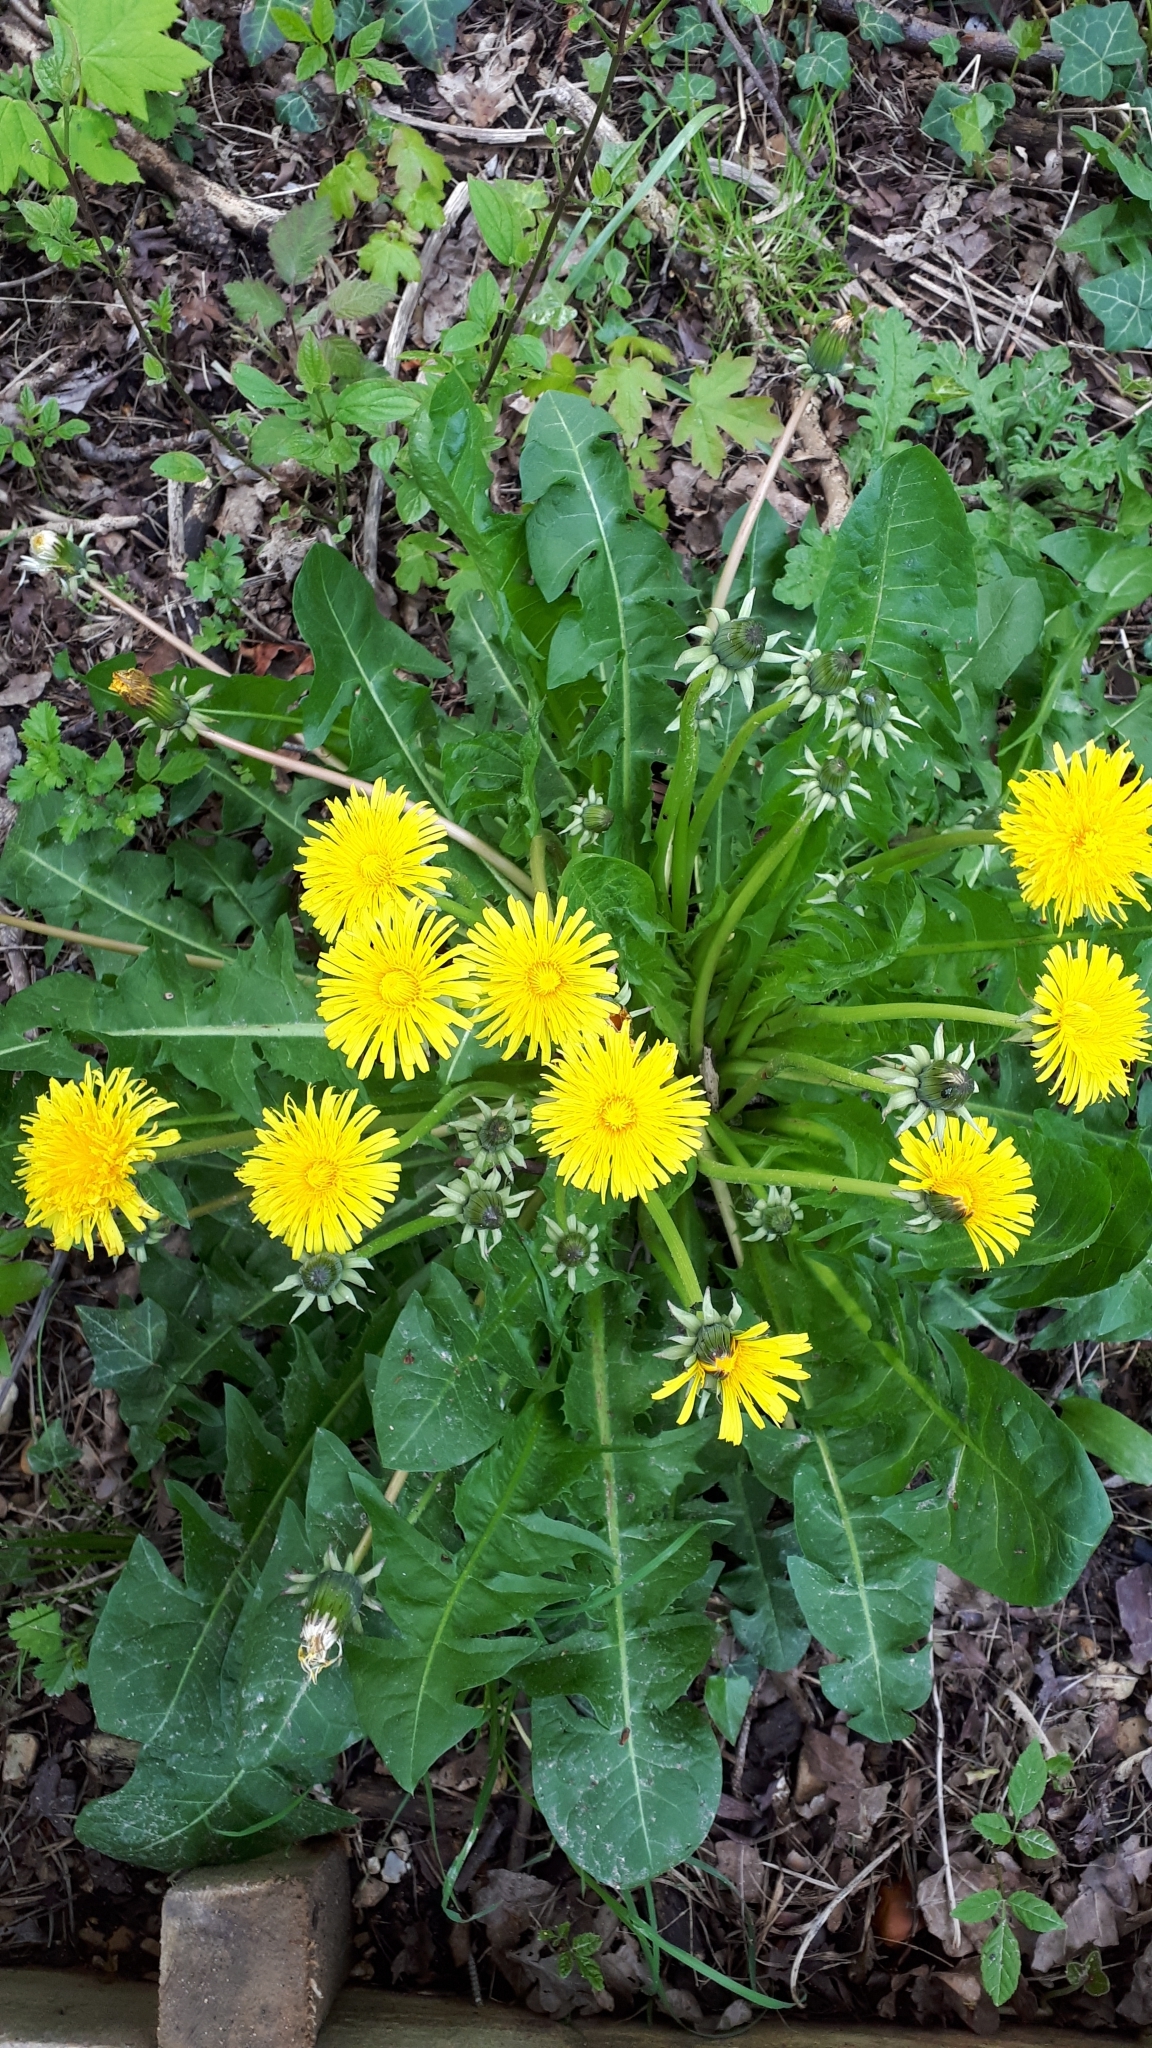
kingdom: Plantae
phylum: Tracheophyta
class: Magnoliopsida
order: Asterales
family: Asteraceae
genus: Taraxacum
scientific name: Taraxacum officinale
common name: Common dandelion
